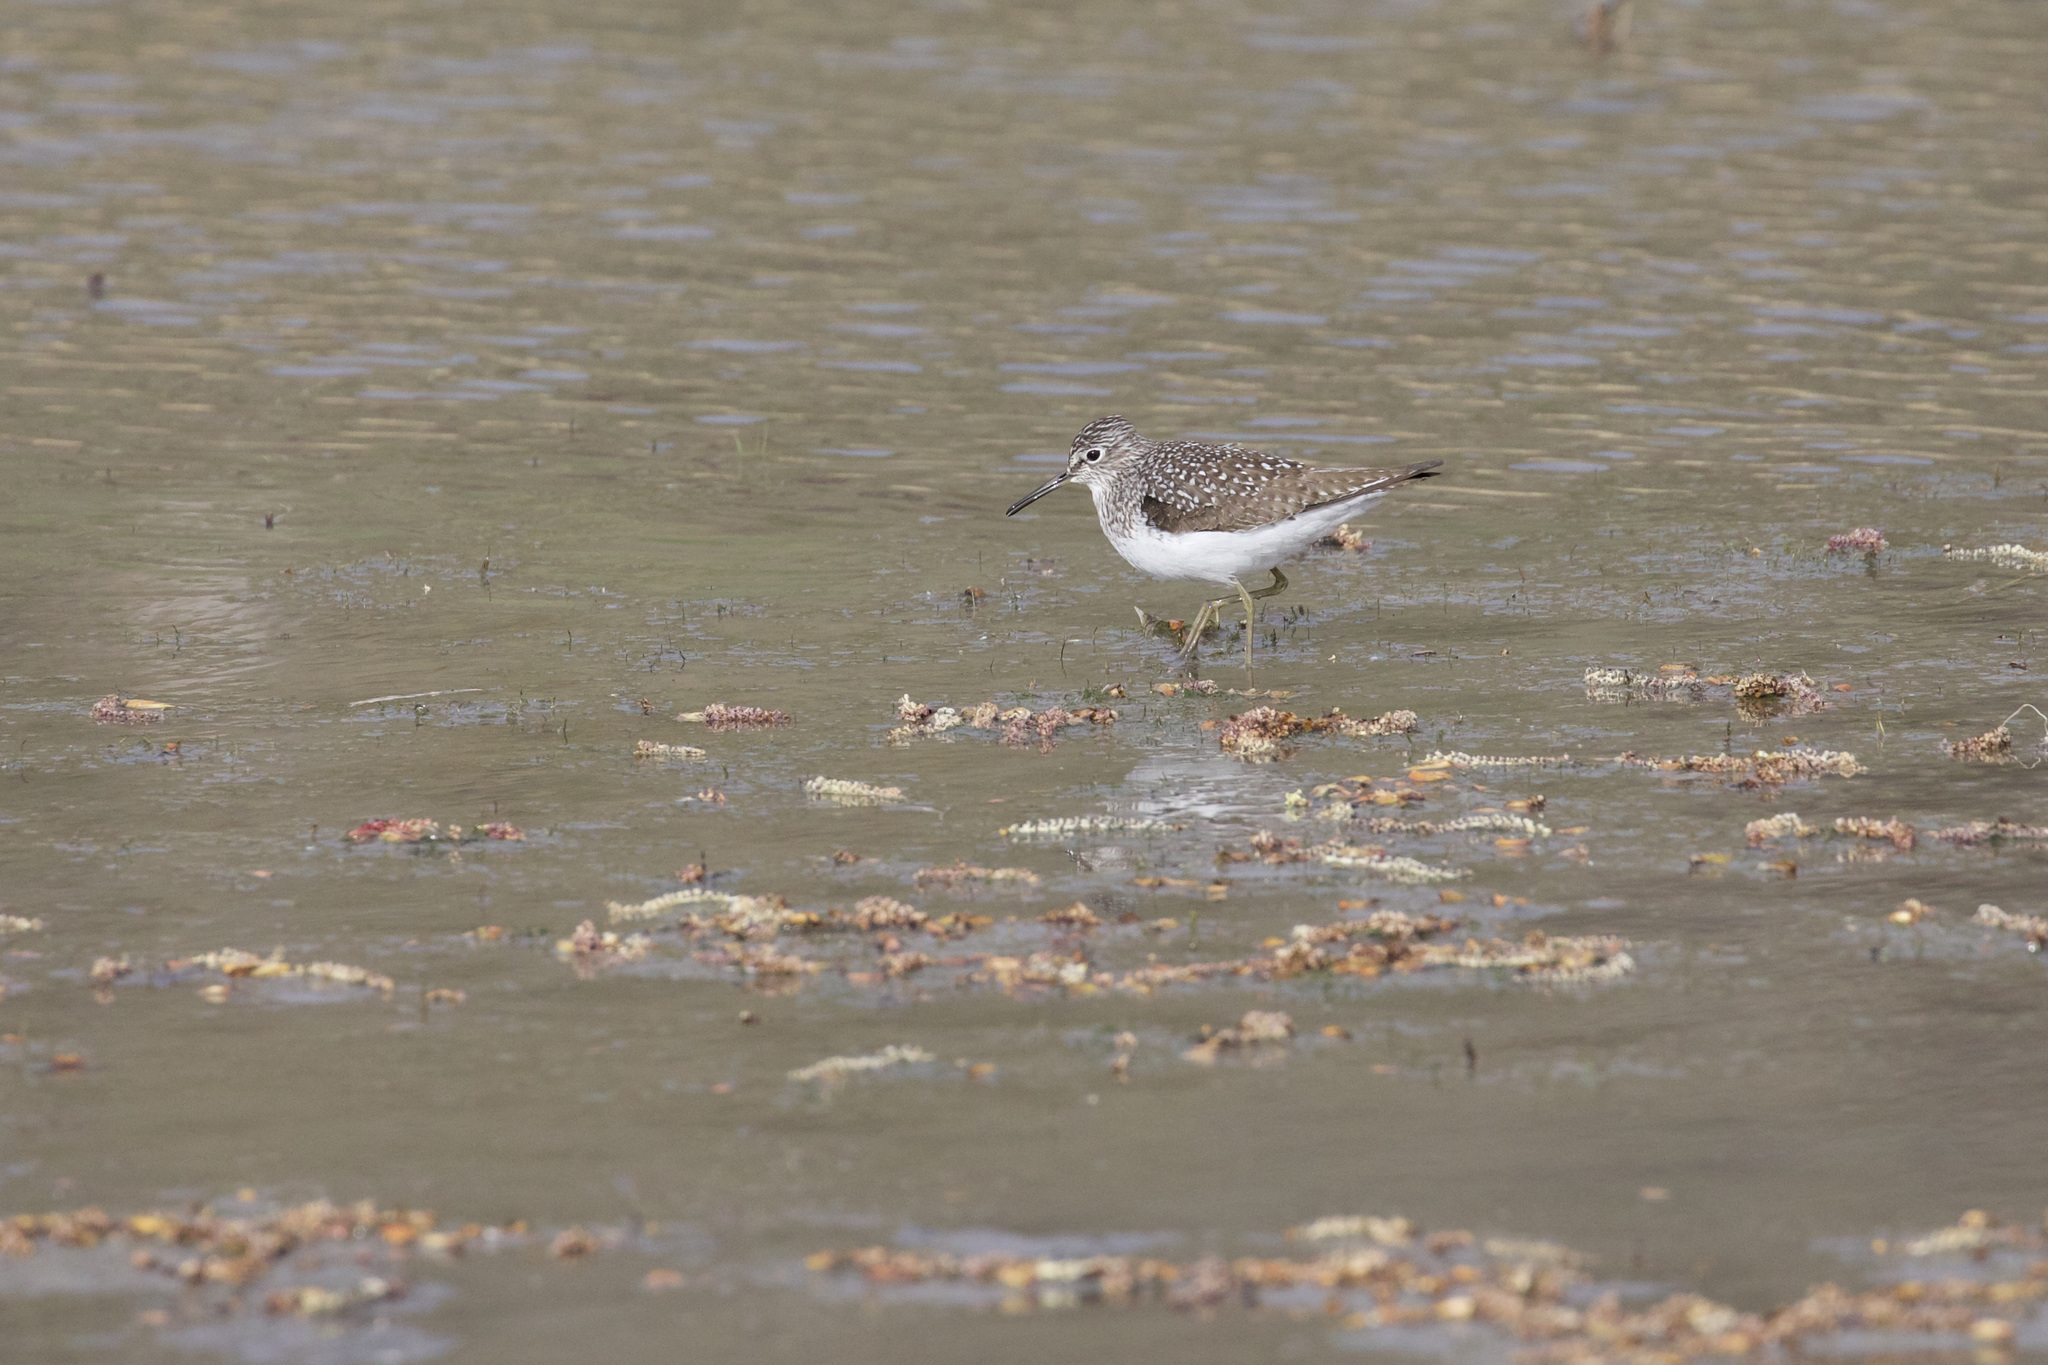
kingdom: Animalia
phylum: Chordata
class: Aves
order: Charadriiformes
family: Scolopacidae
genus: Tringa
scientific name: Tringa solitaria
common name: Solitary sandpiper
